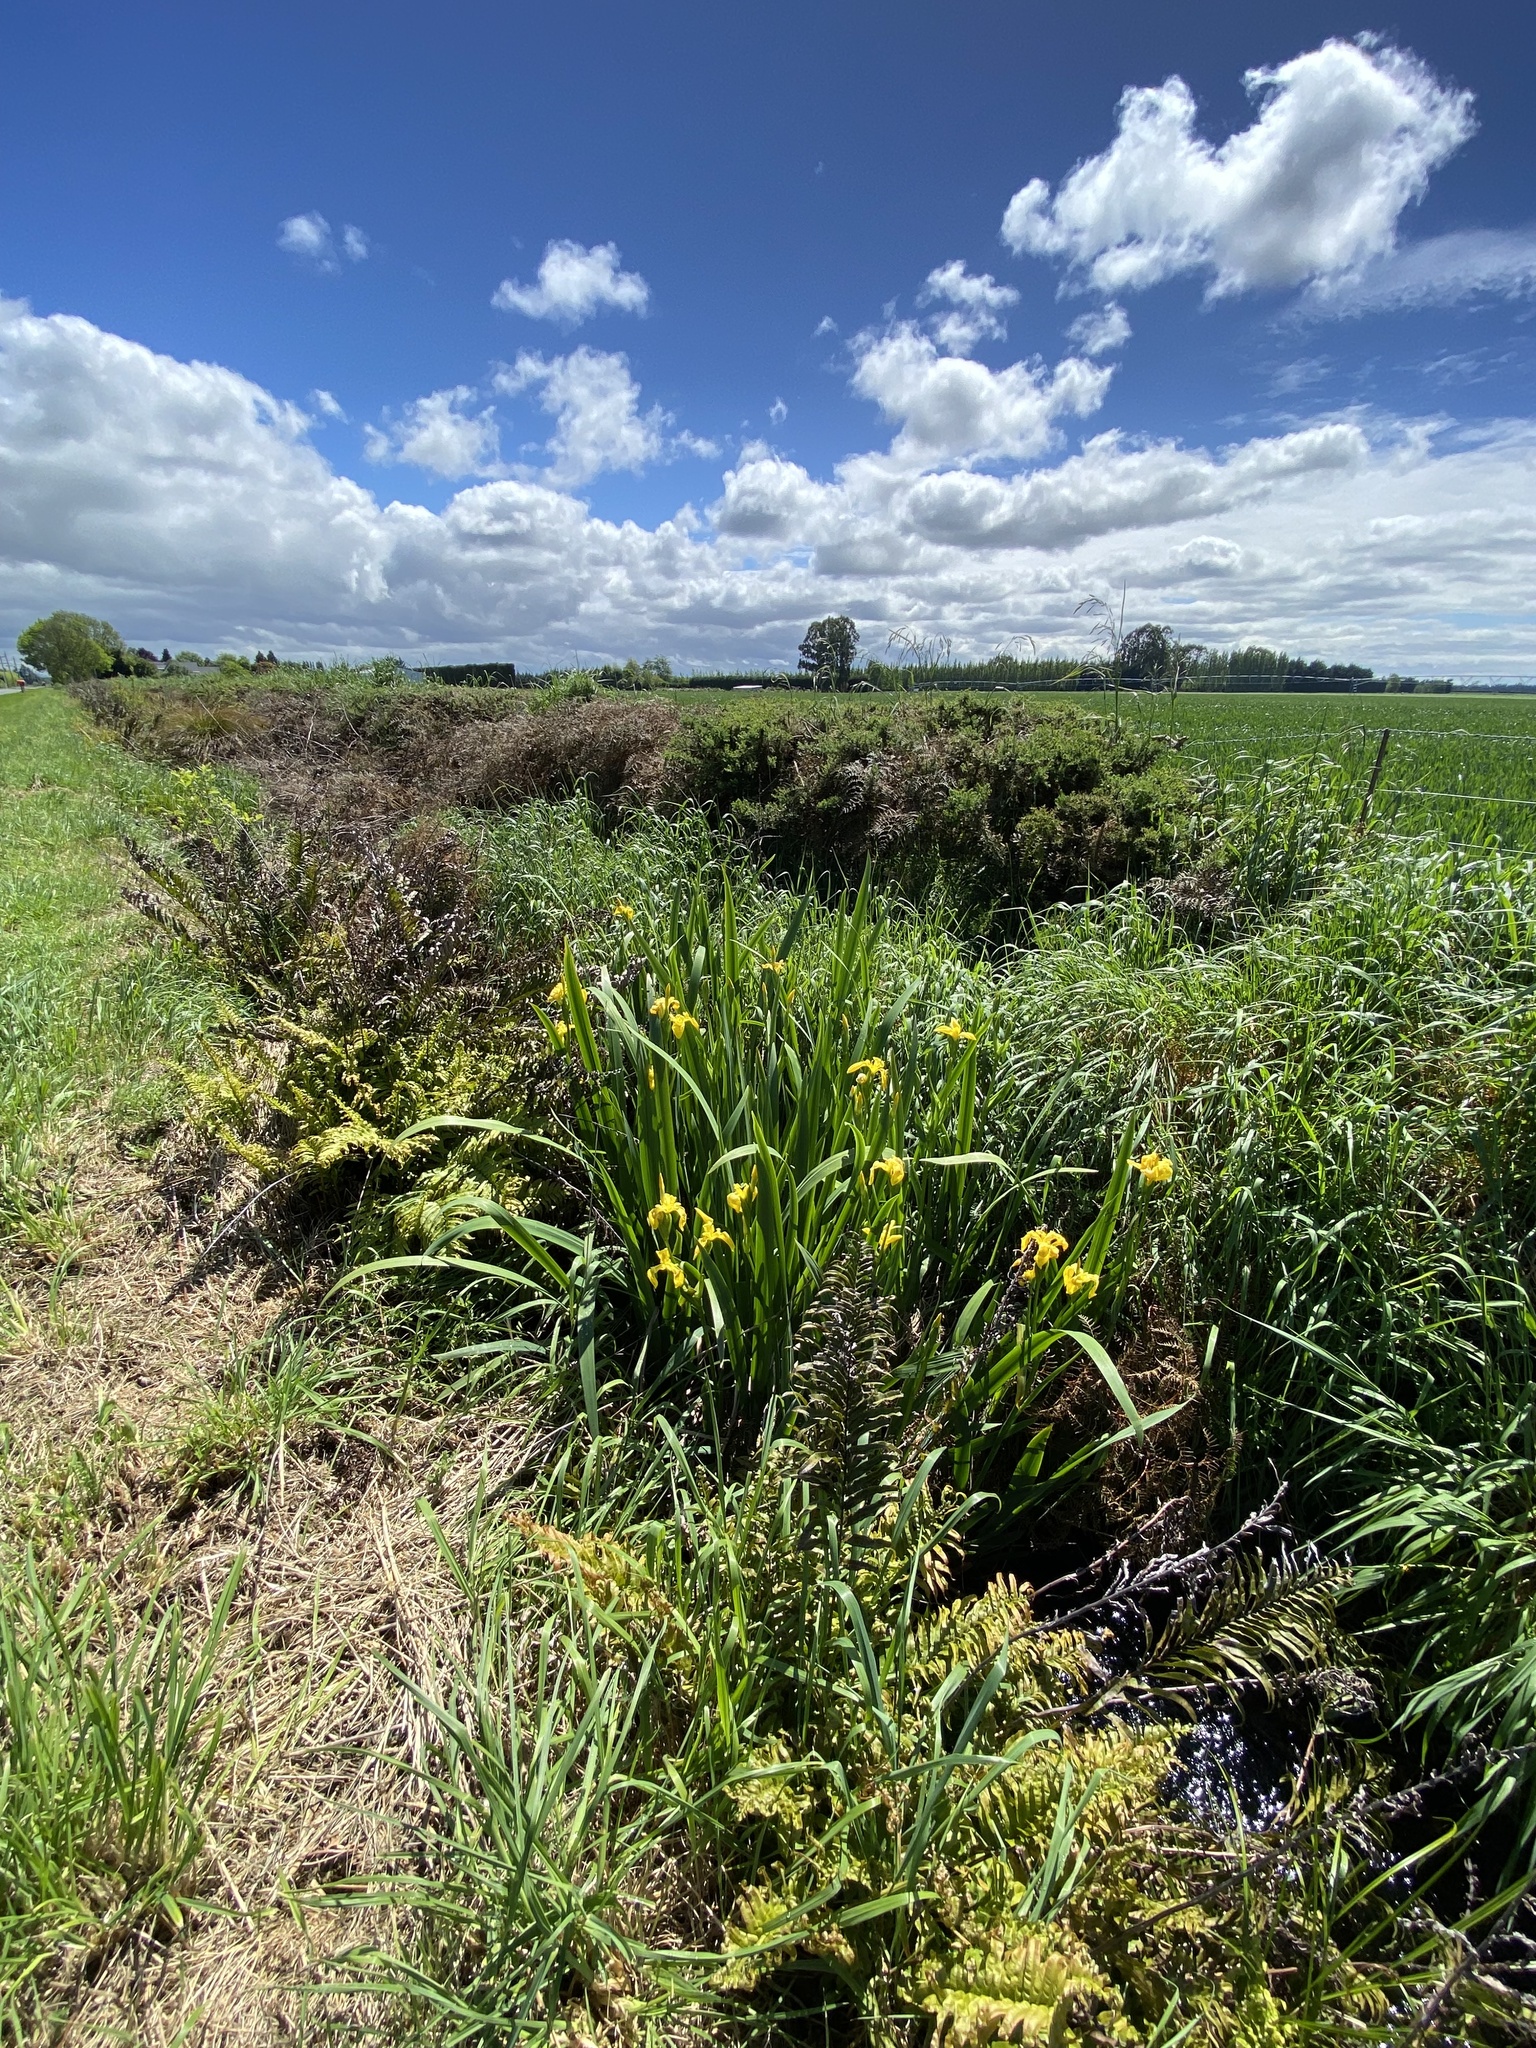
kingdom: Plantae
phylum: Tracheophyta
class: Liliopsida
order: Asparagales
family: Iridaceae
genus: Iris
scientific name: Iris pseudacorus
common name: Yellow flag
